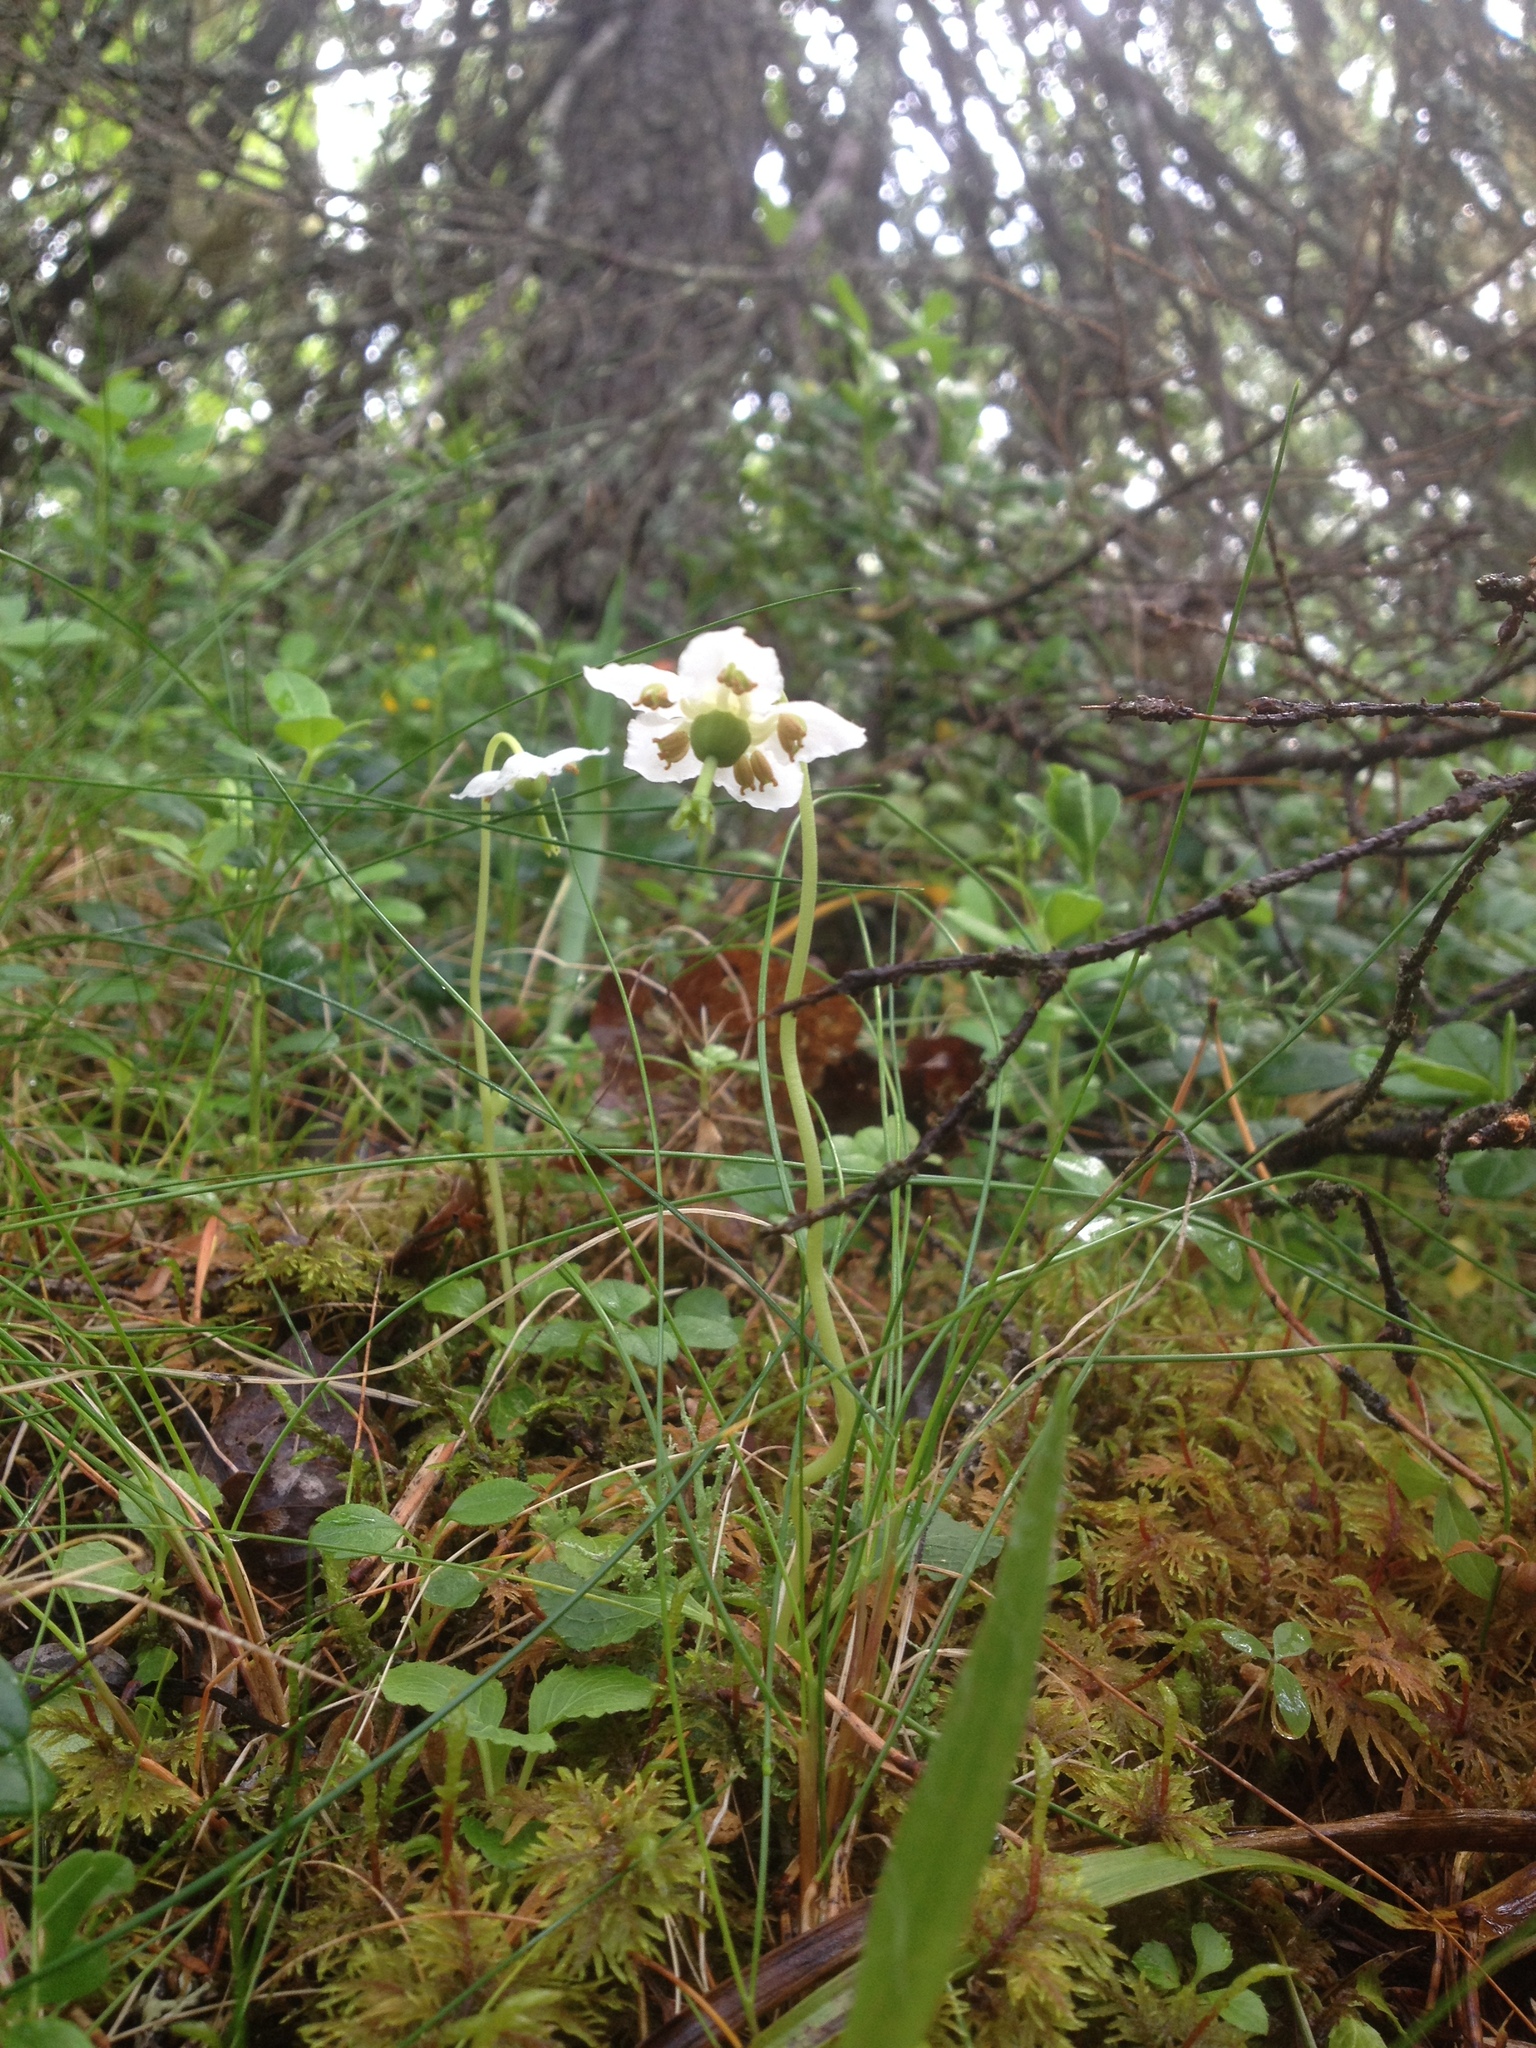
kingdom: Plantae
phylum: Tracheophyta
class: Magnoliopsida
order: Ericales
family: Ericaceae
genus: Moneses
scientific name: Moneses uniflora
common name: One-flowered wintergreen
